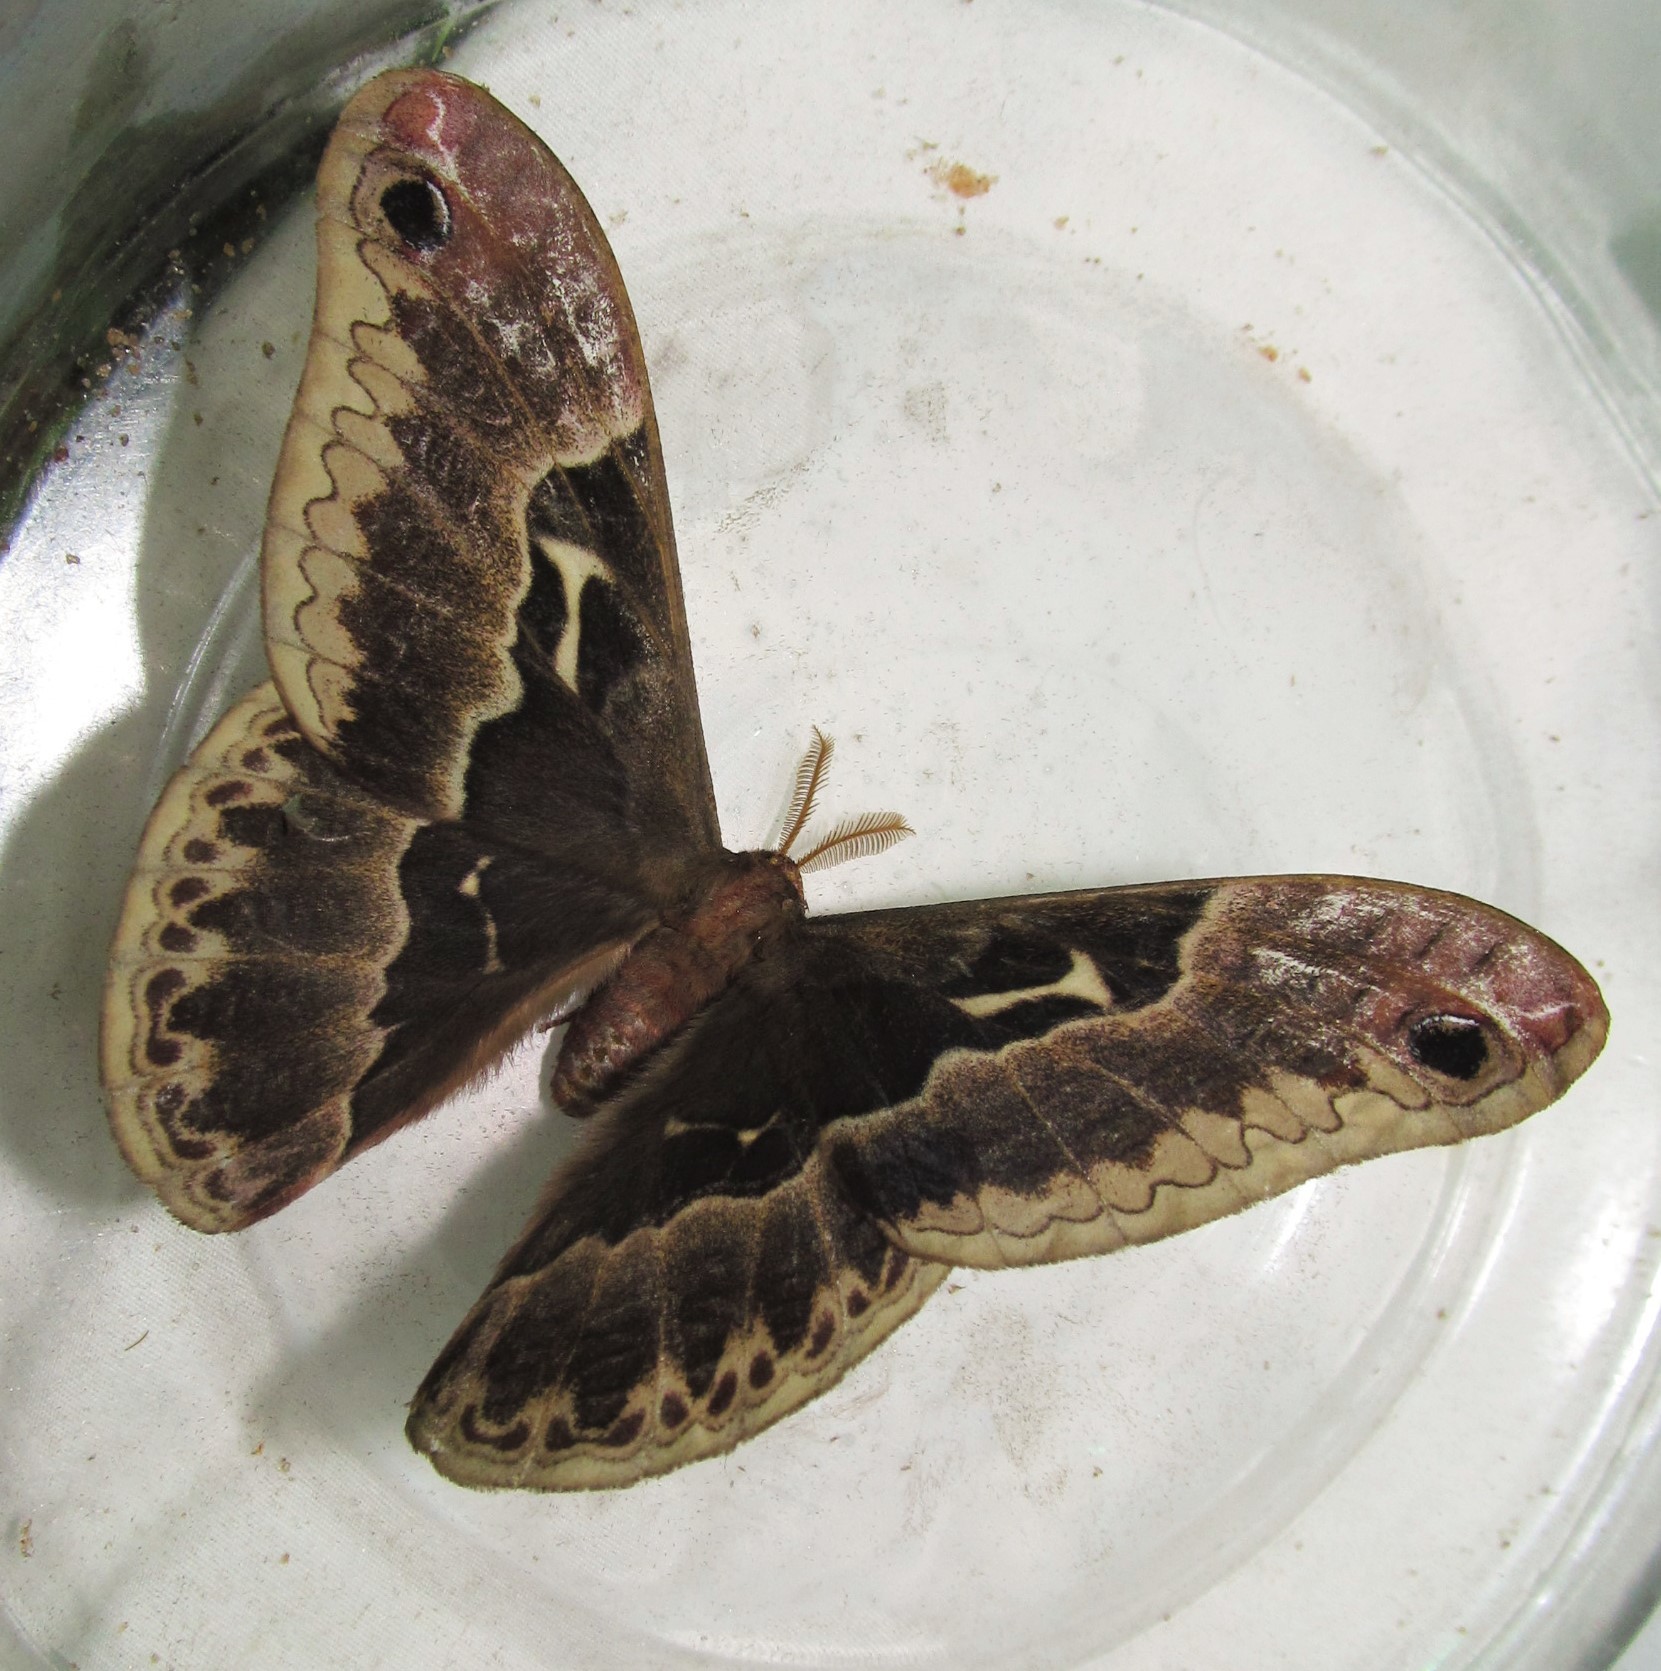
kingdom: Animalia
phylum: Arthropoda
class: Insecta
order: Lepidoptera
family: Saturniidae
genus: Callosamia
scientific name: Callosamia angulifera
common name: Tulip tree silkmoth
